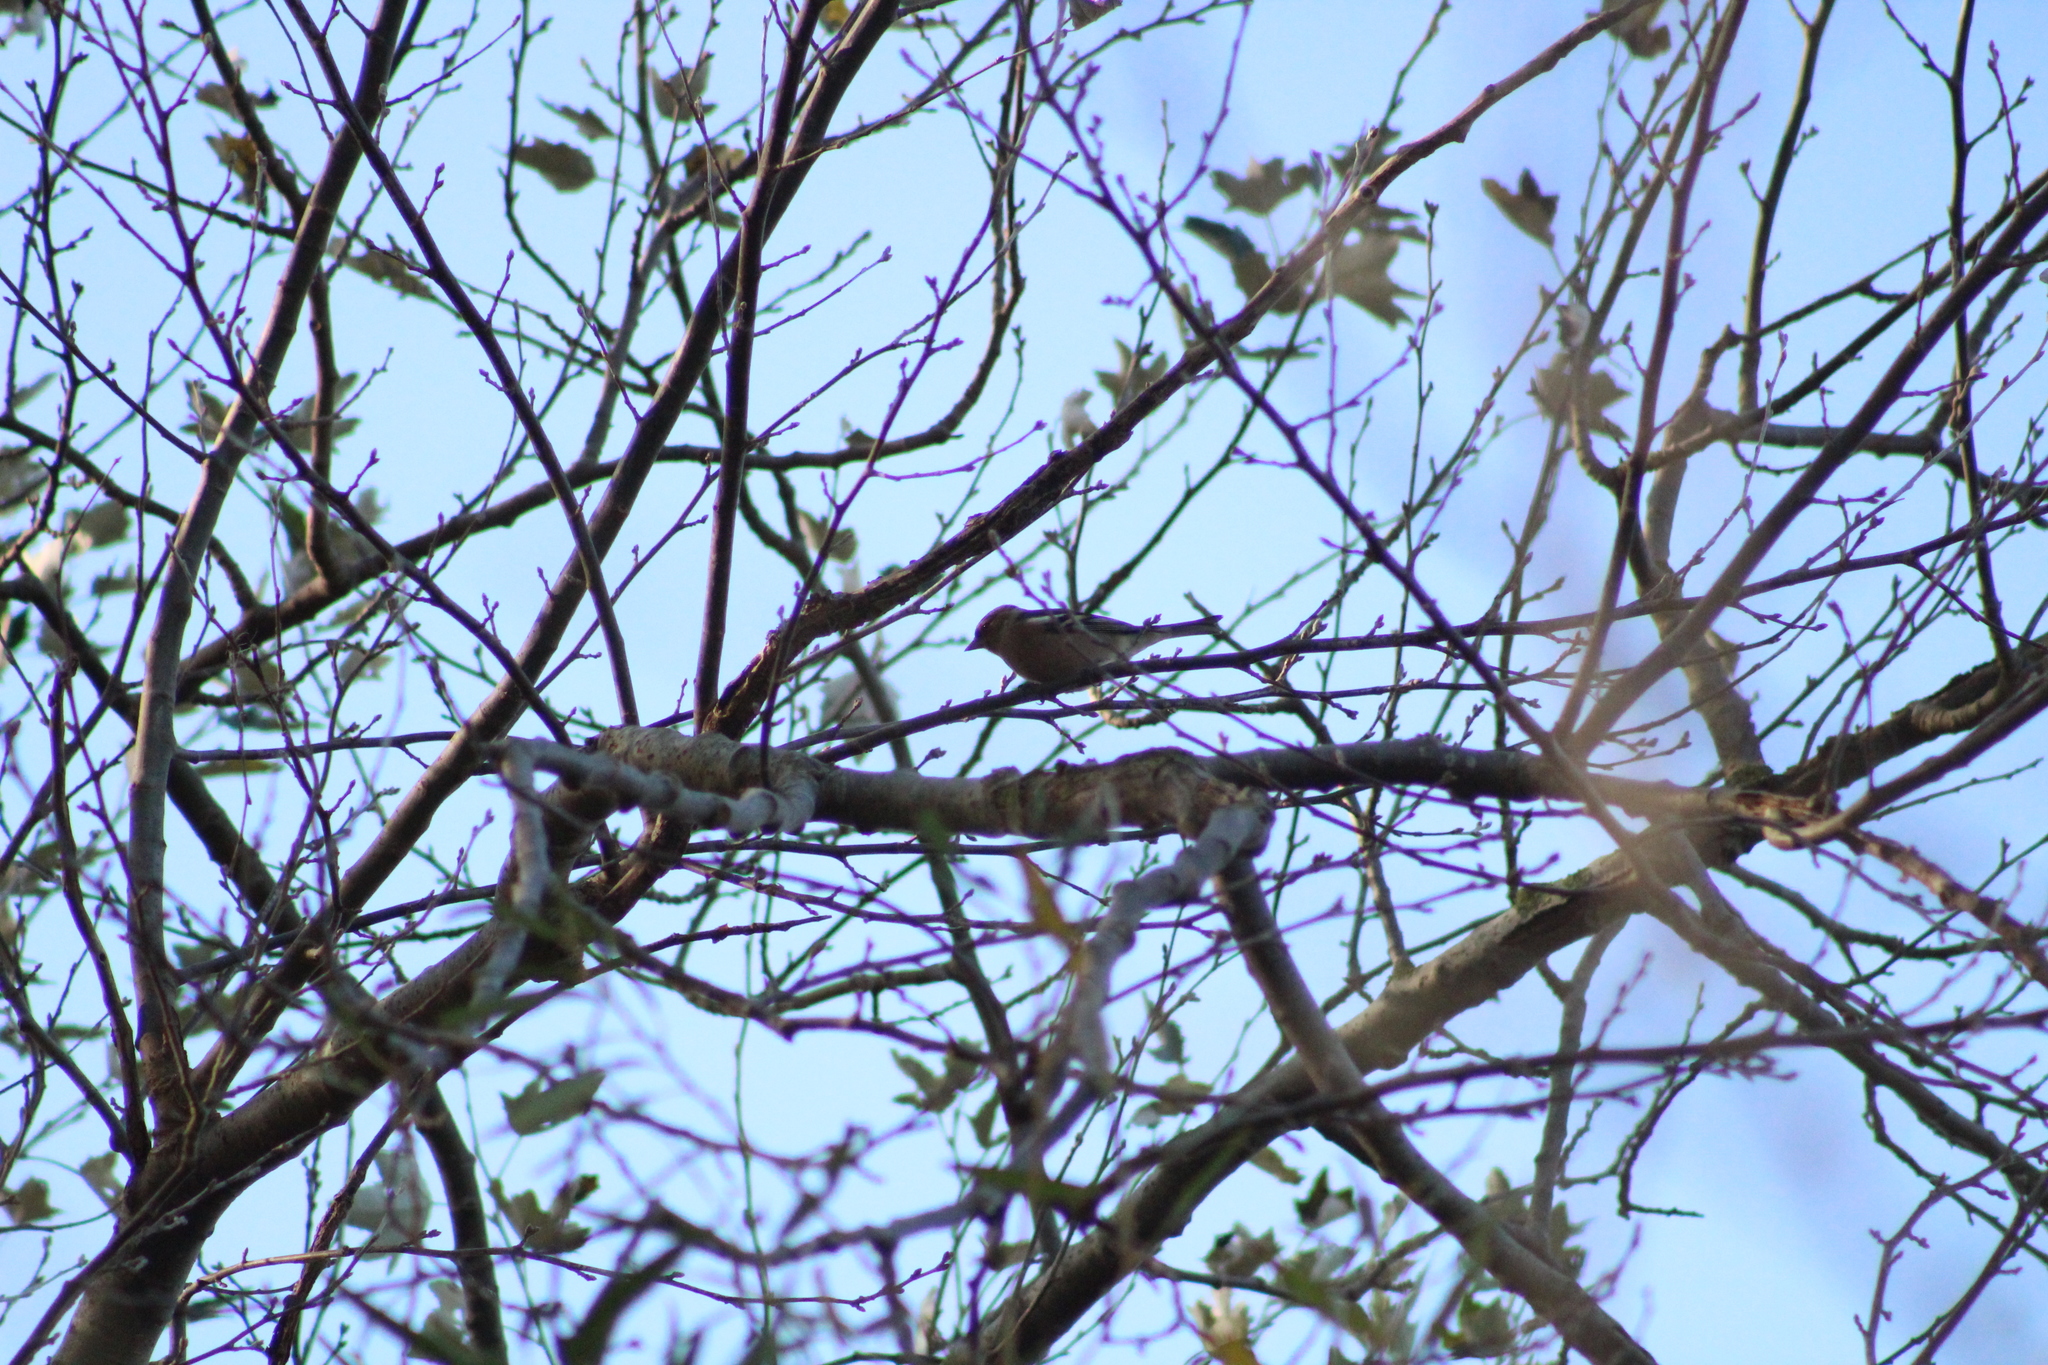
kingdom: Animalia
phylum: Chordata
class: Aves
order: Passeriformes
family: Fringillidae
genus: Fringilla
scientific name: Fringilla coelebs
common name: Common chaffinch
